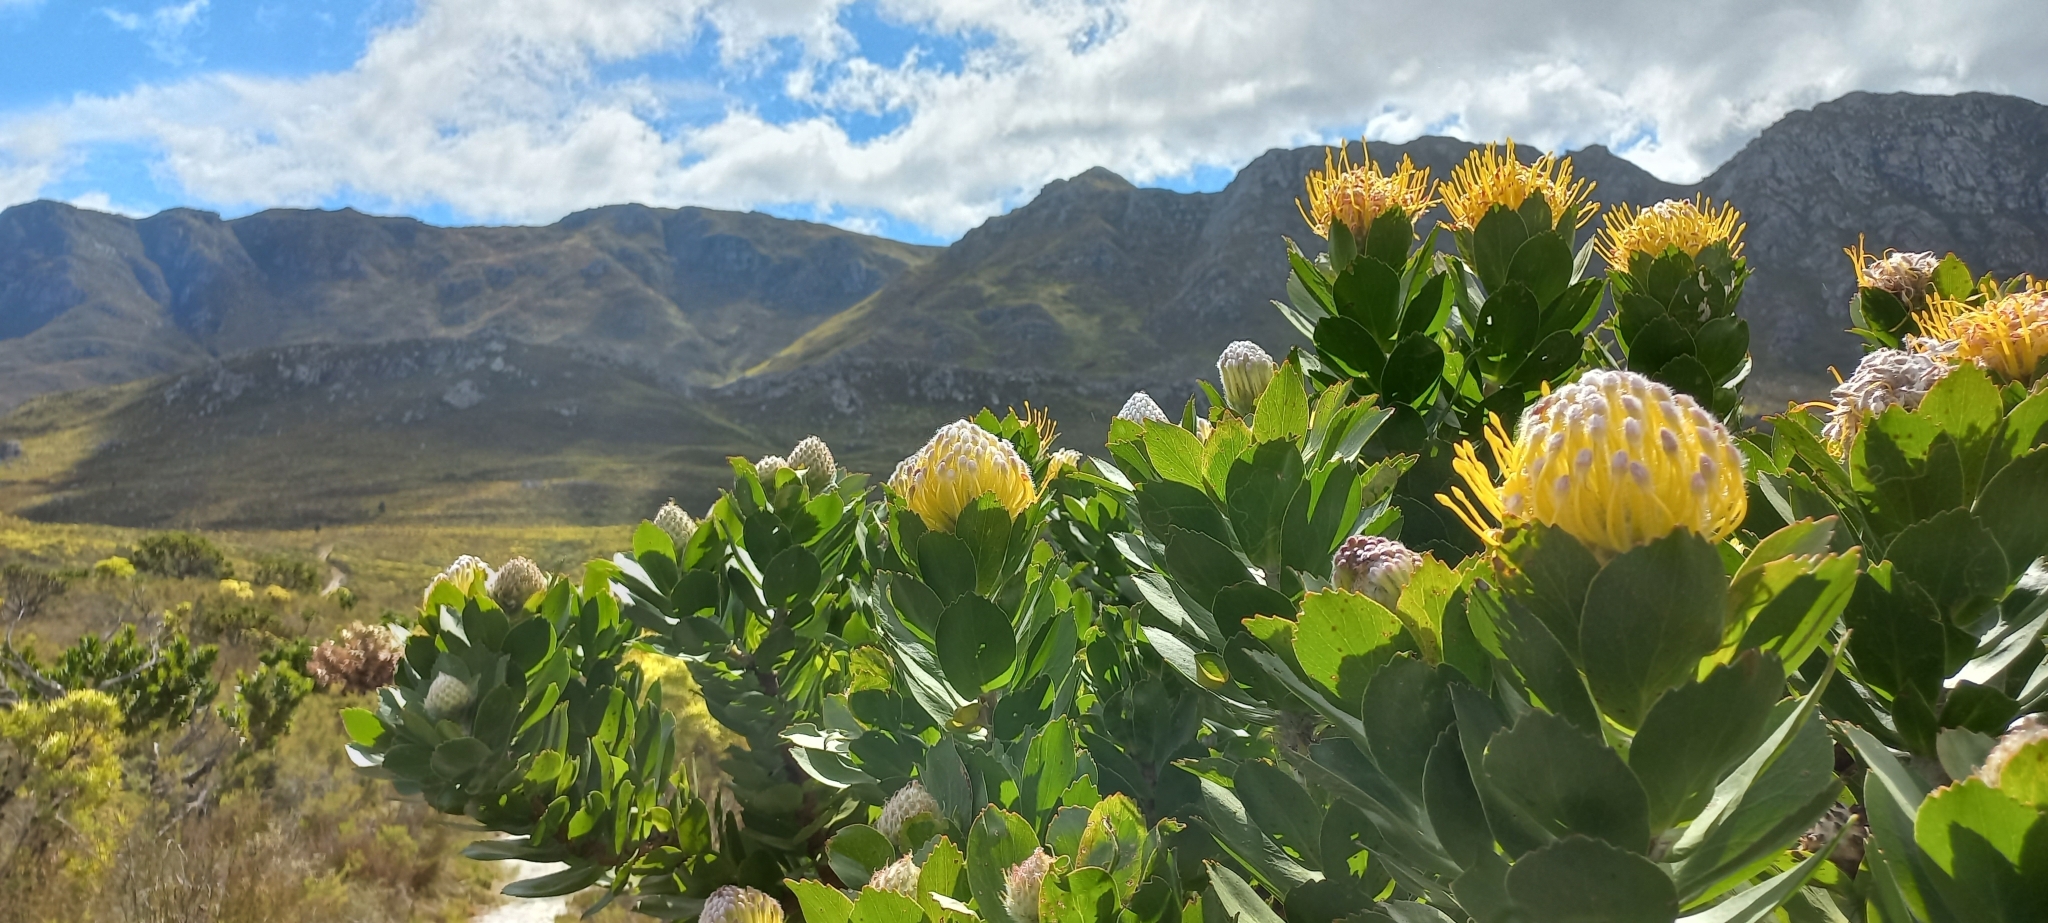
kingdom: Plantae
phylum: Tracheophyta
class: Magnoliopsida
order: Proteales
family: Proteaceae
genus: Leucospermum
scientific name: Leucospermum conocarpodendron
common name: Tree pincushion
